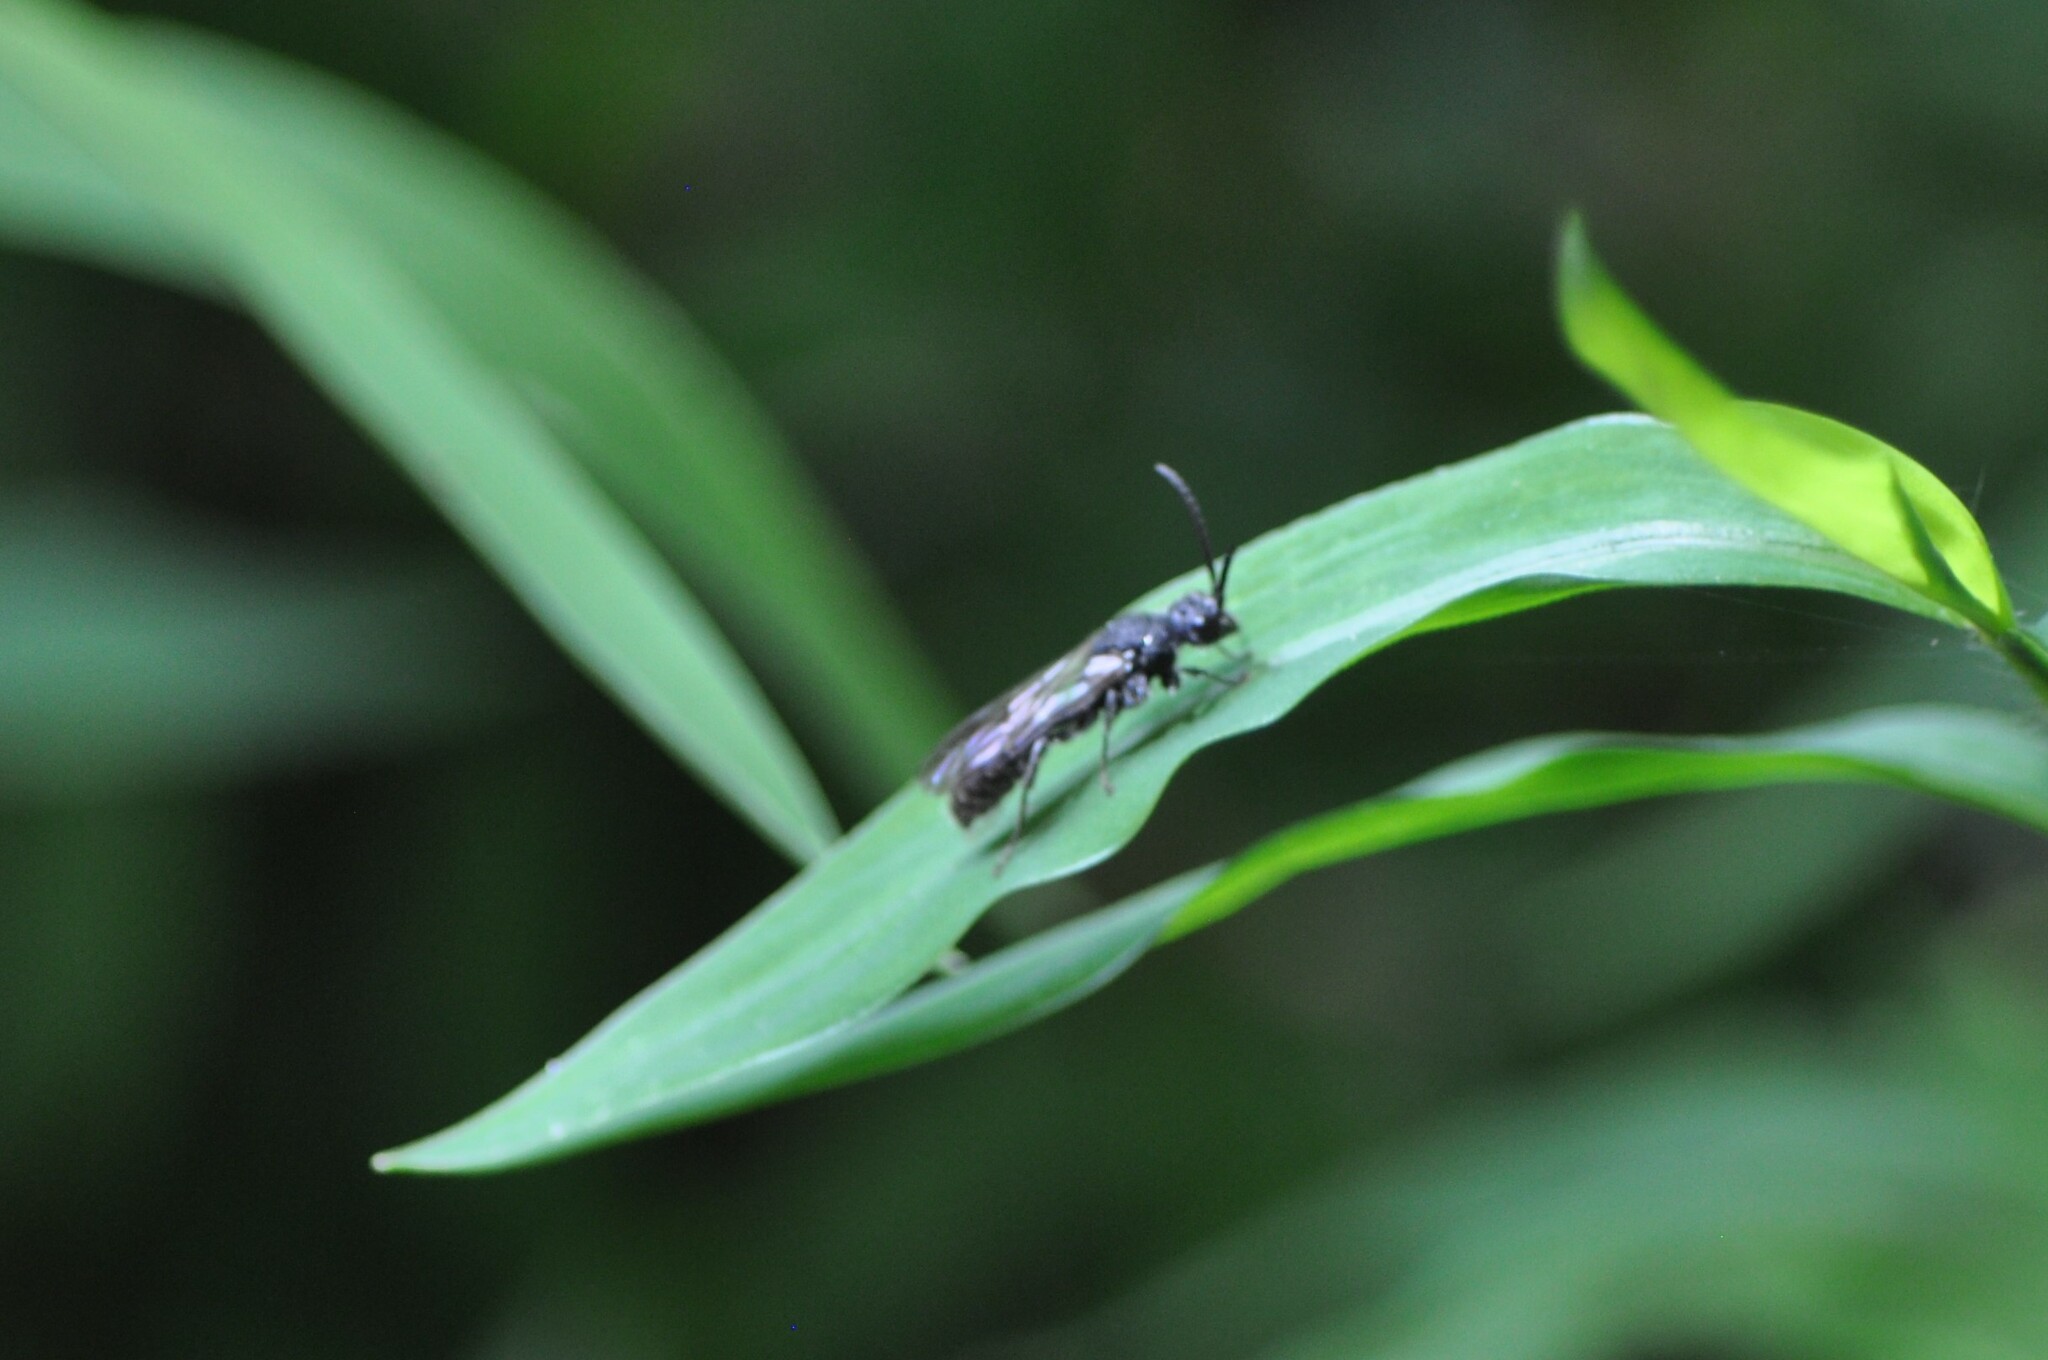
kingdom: Animalia
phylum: Arthropoda
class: Insecta
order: Hymenoptera
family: Mutillidae
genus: Myrmosa
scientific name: Myrmosa unicolor
